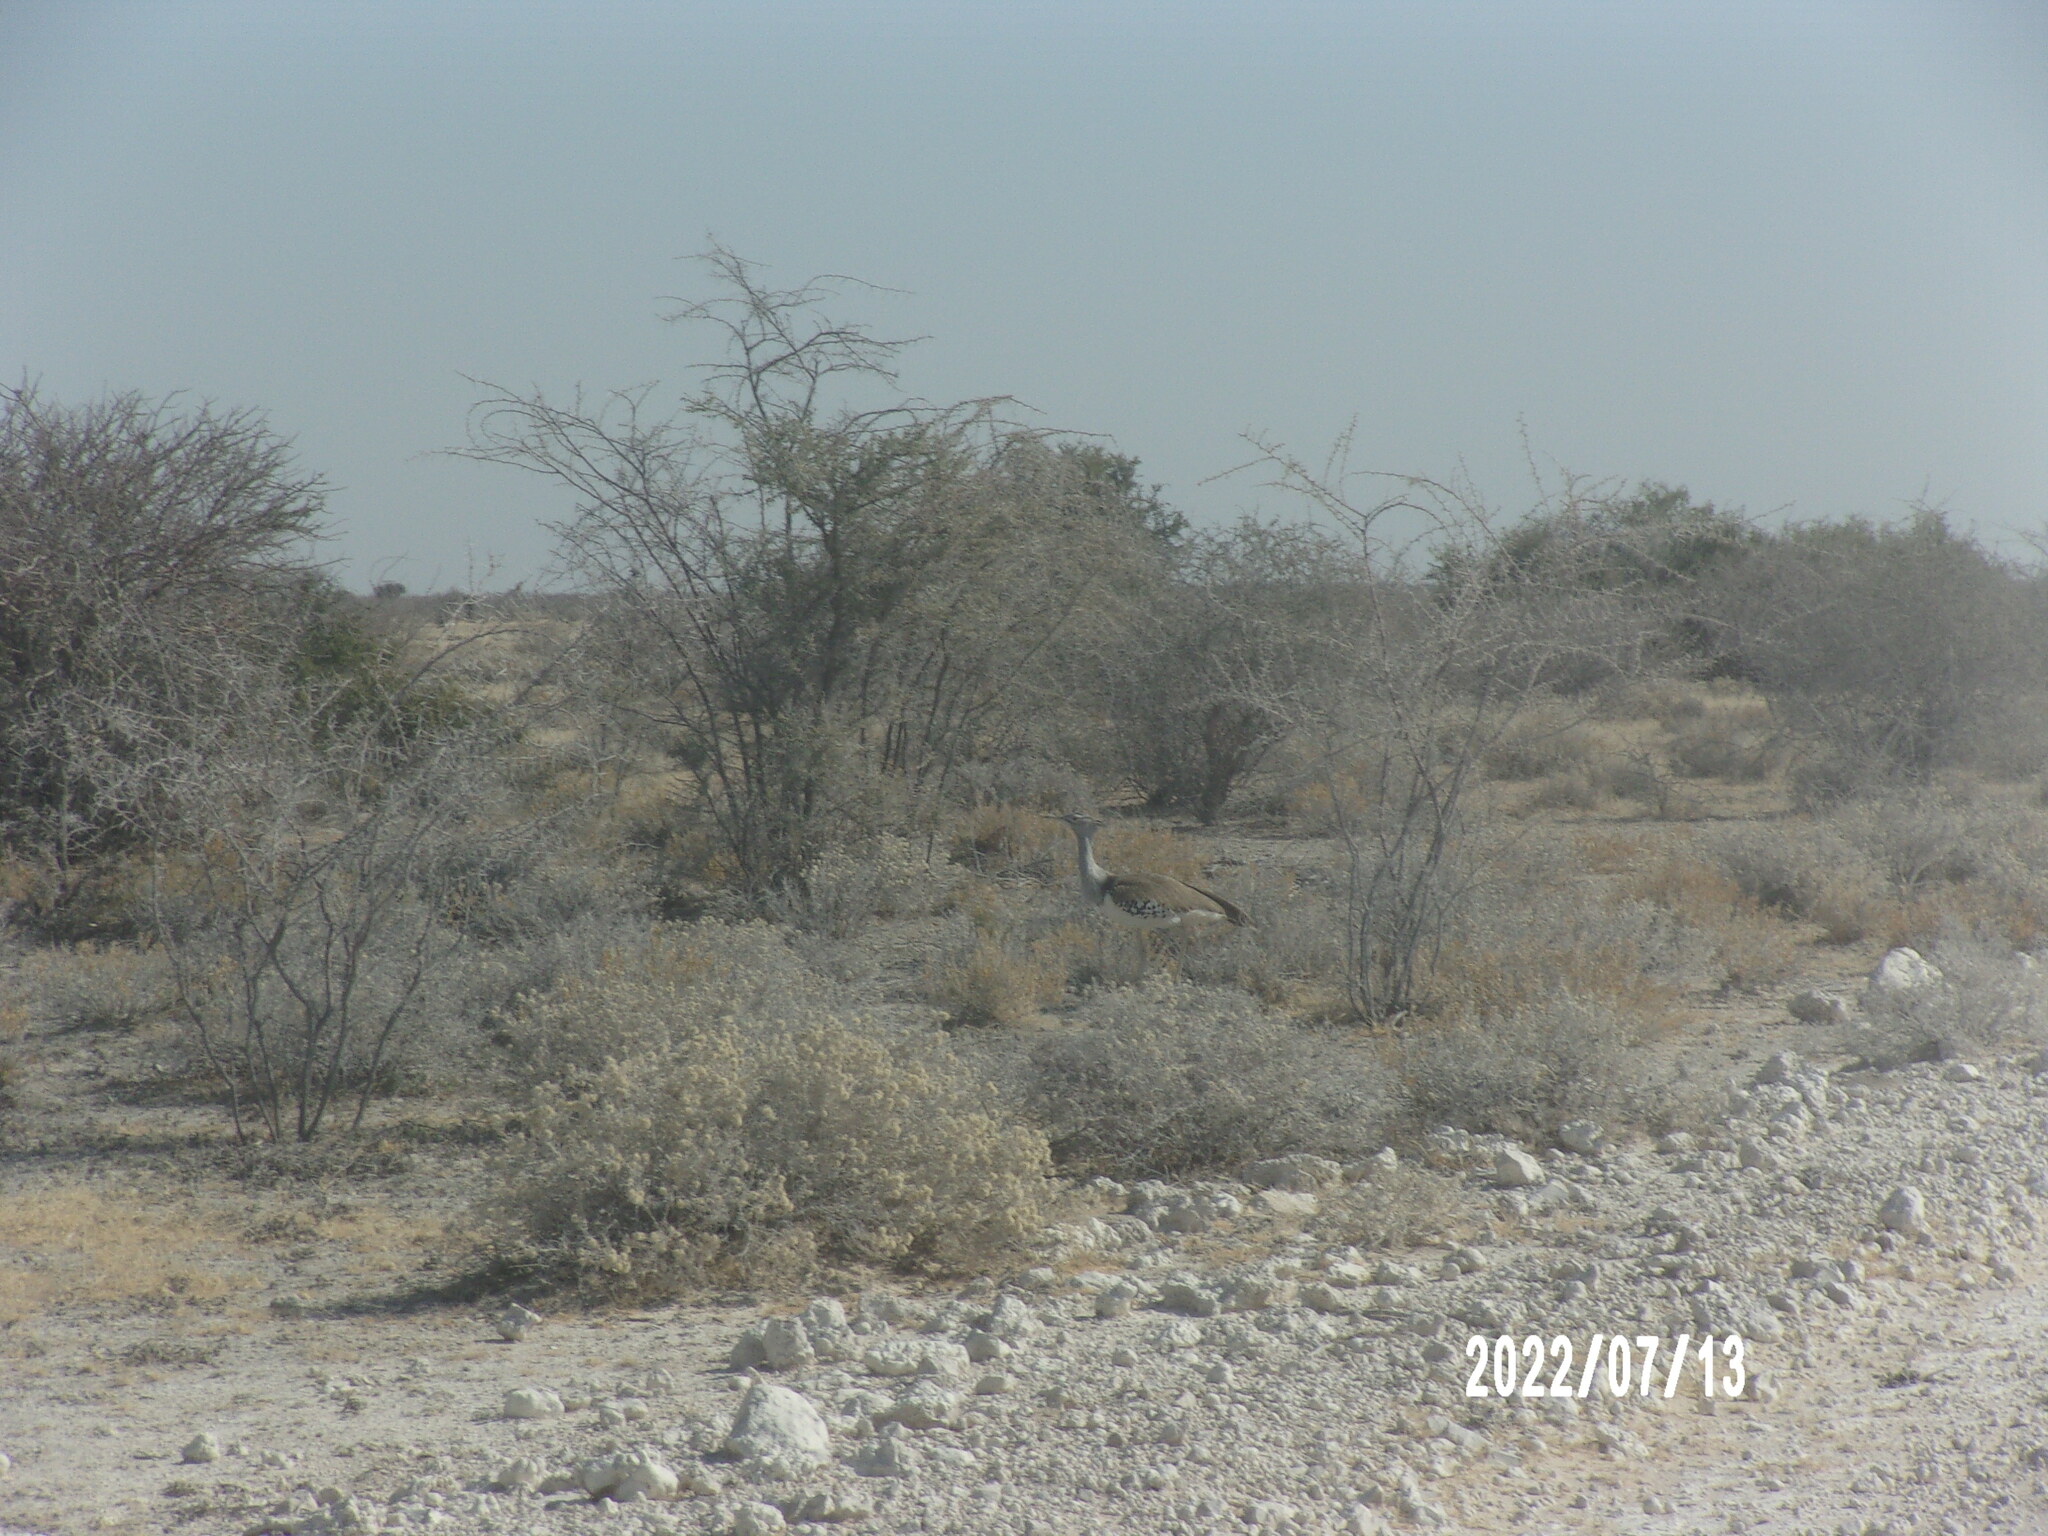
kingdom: Animalia
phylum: Chordata
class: Aves
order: Otidiformes
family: Otididae
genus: Ardeotis
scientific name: Ardeotis kori
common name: Kori bustard
